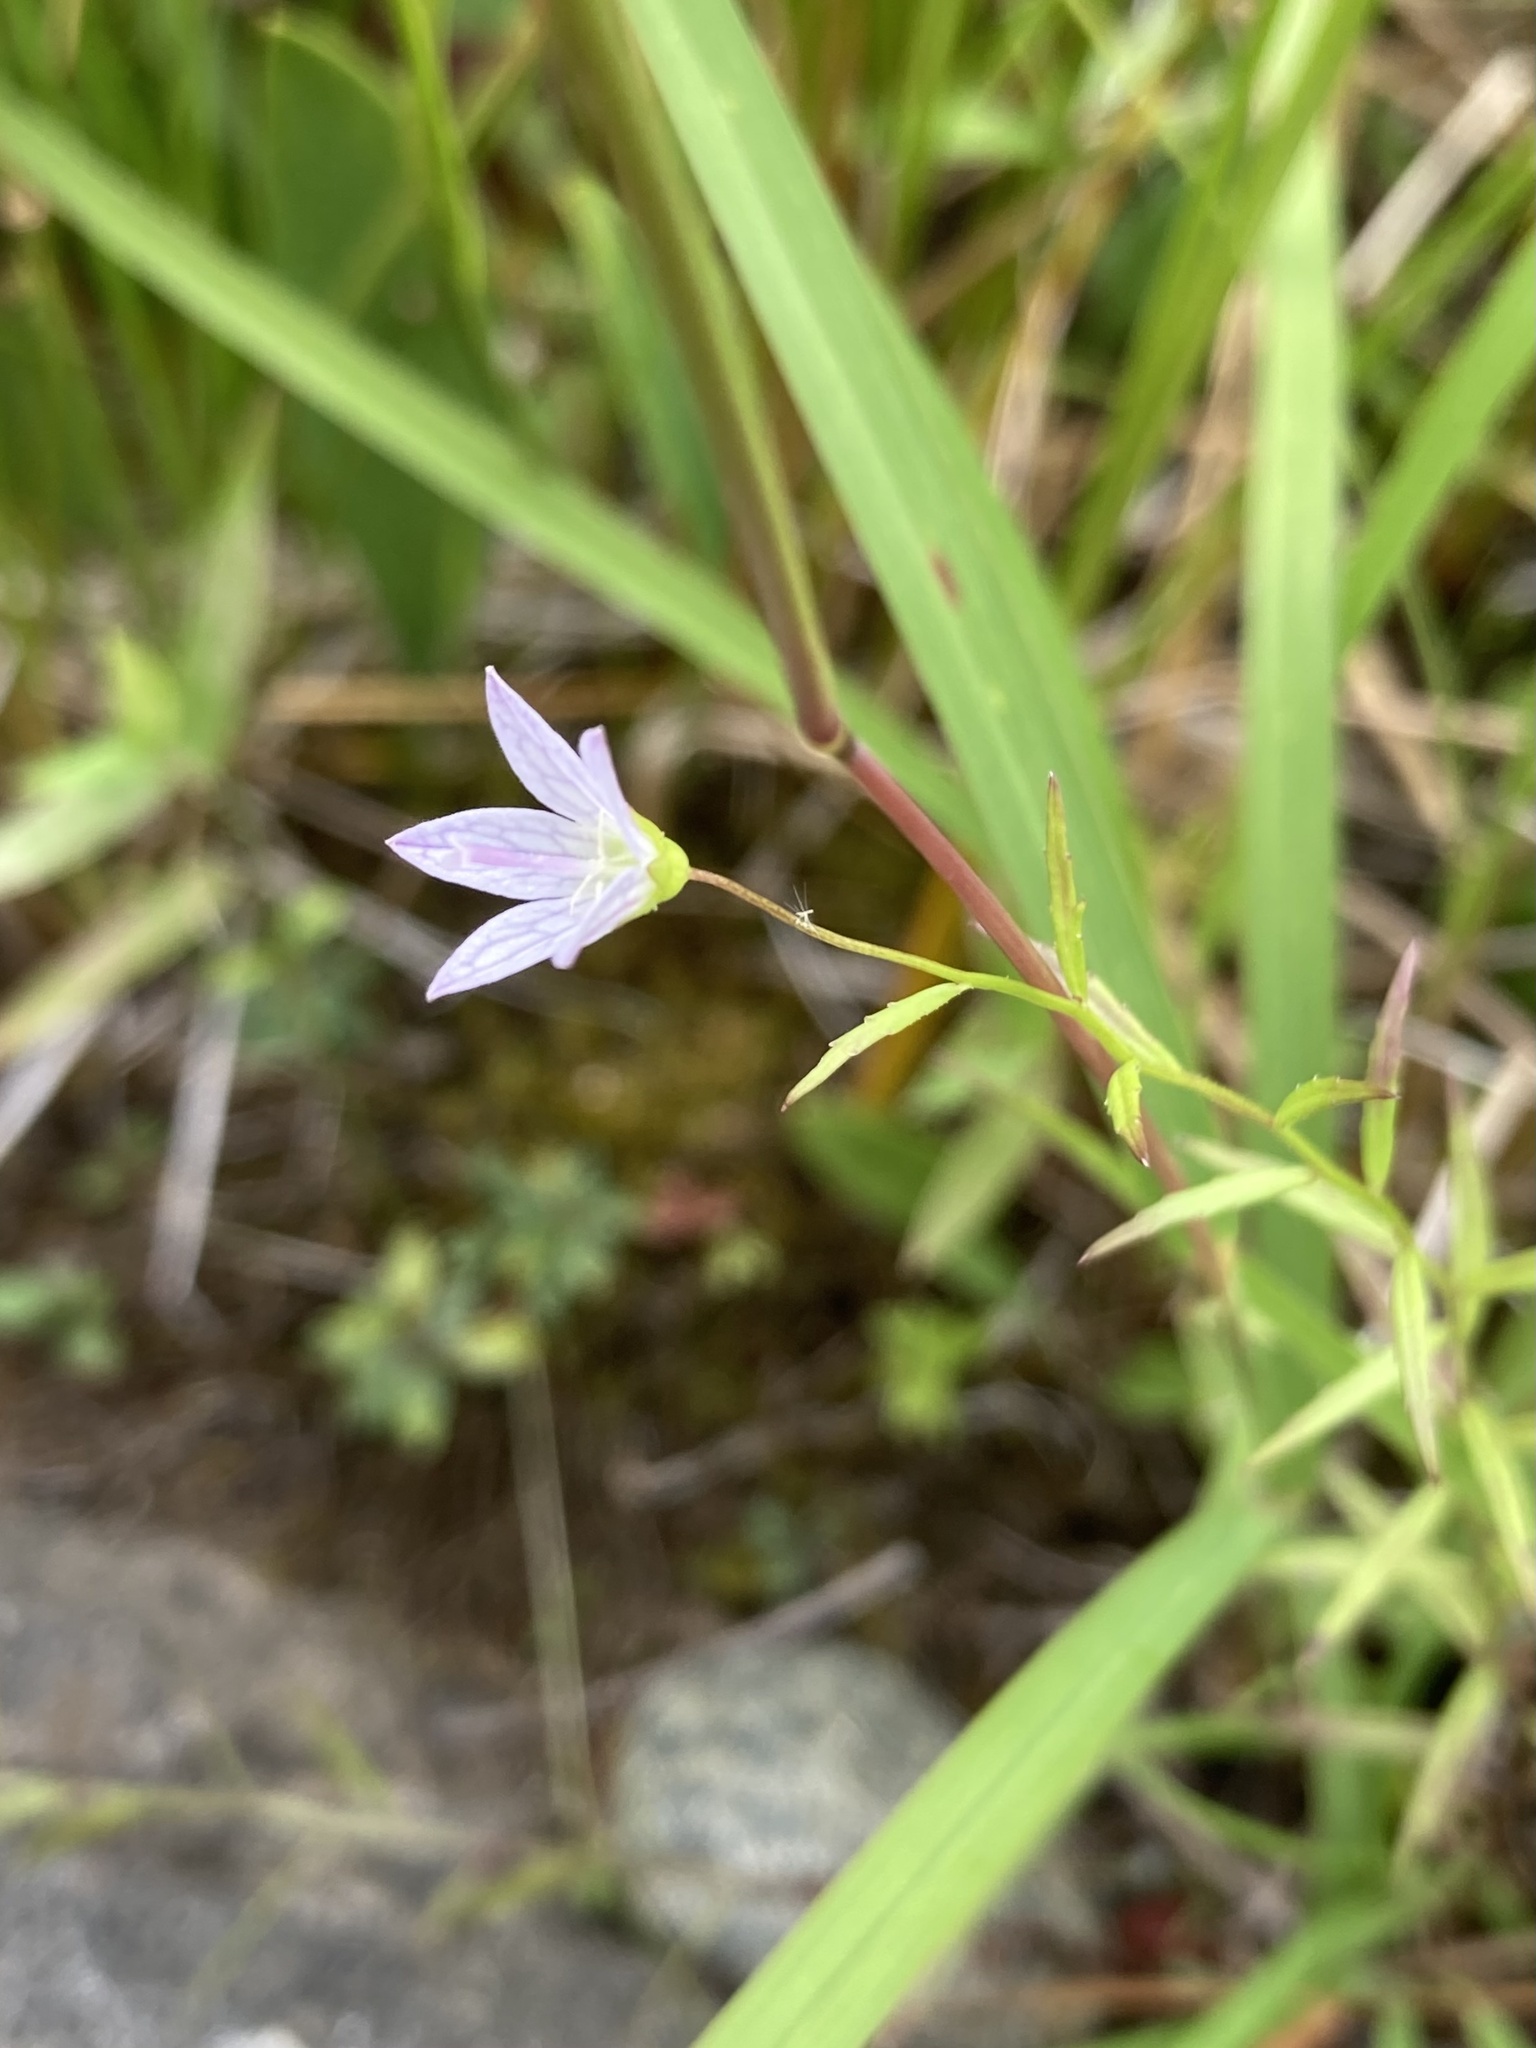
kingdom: Plantae
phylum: Tracheophyta
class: Magnoliopsida
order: Asterales
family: Campanulaceae
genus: Palustricodon
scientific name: Palustricodon aparinoides
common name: Bedstraw bellflower
